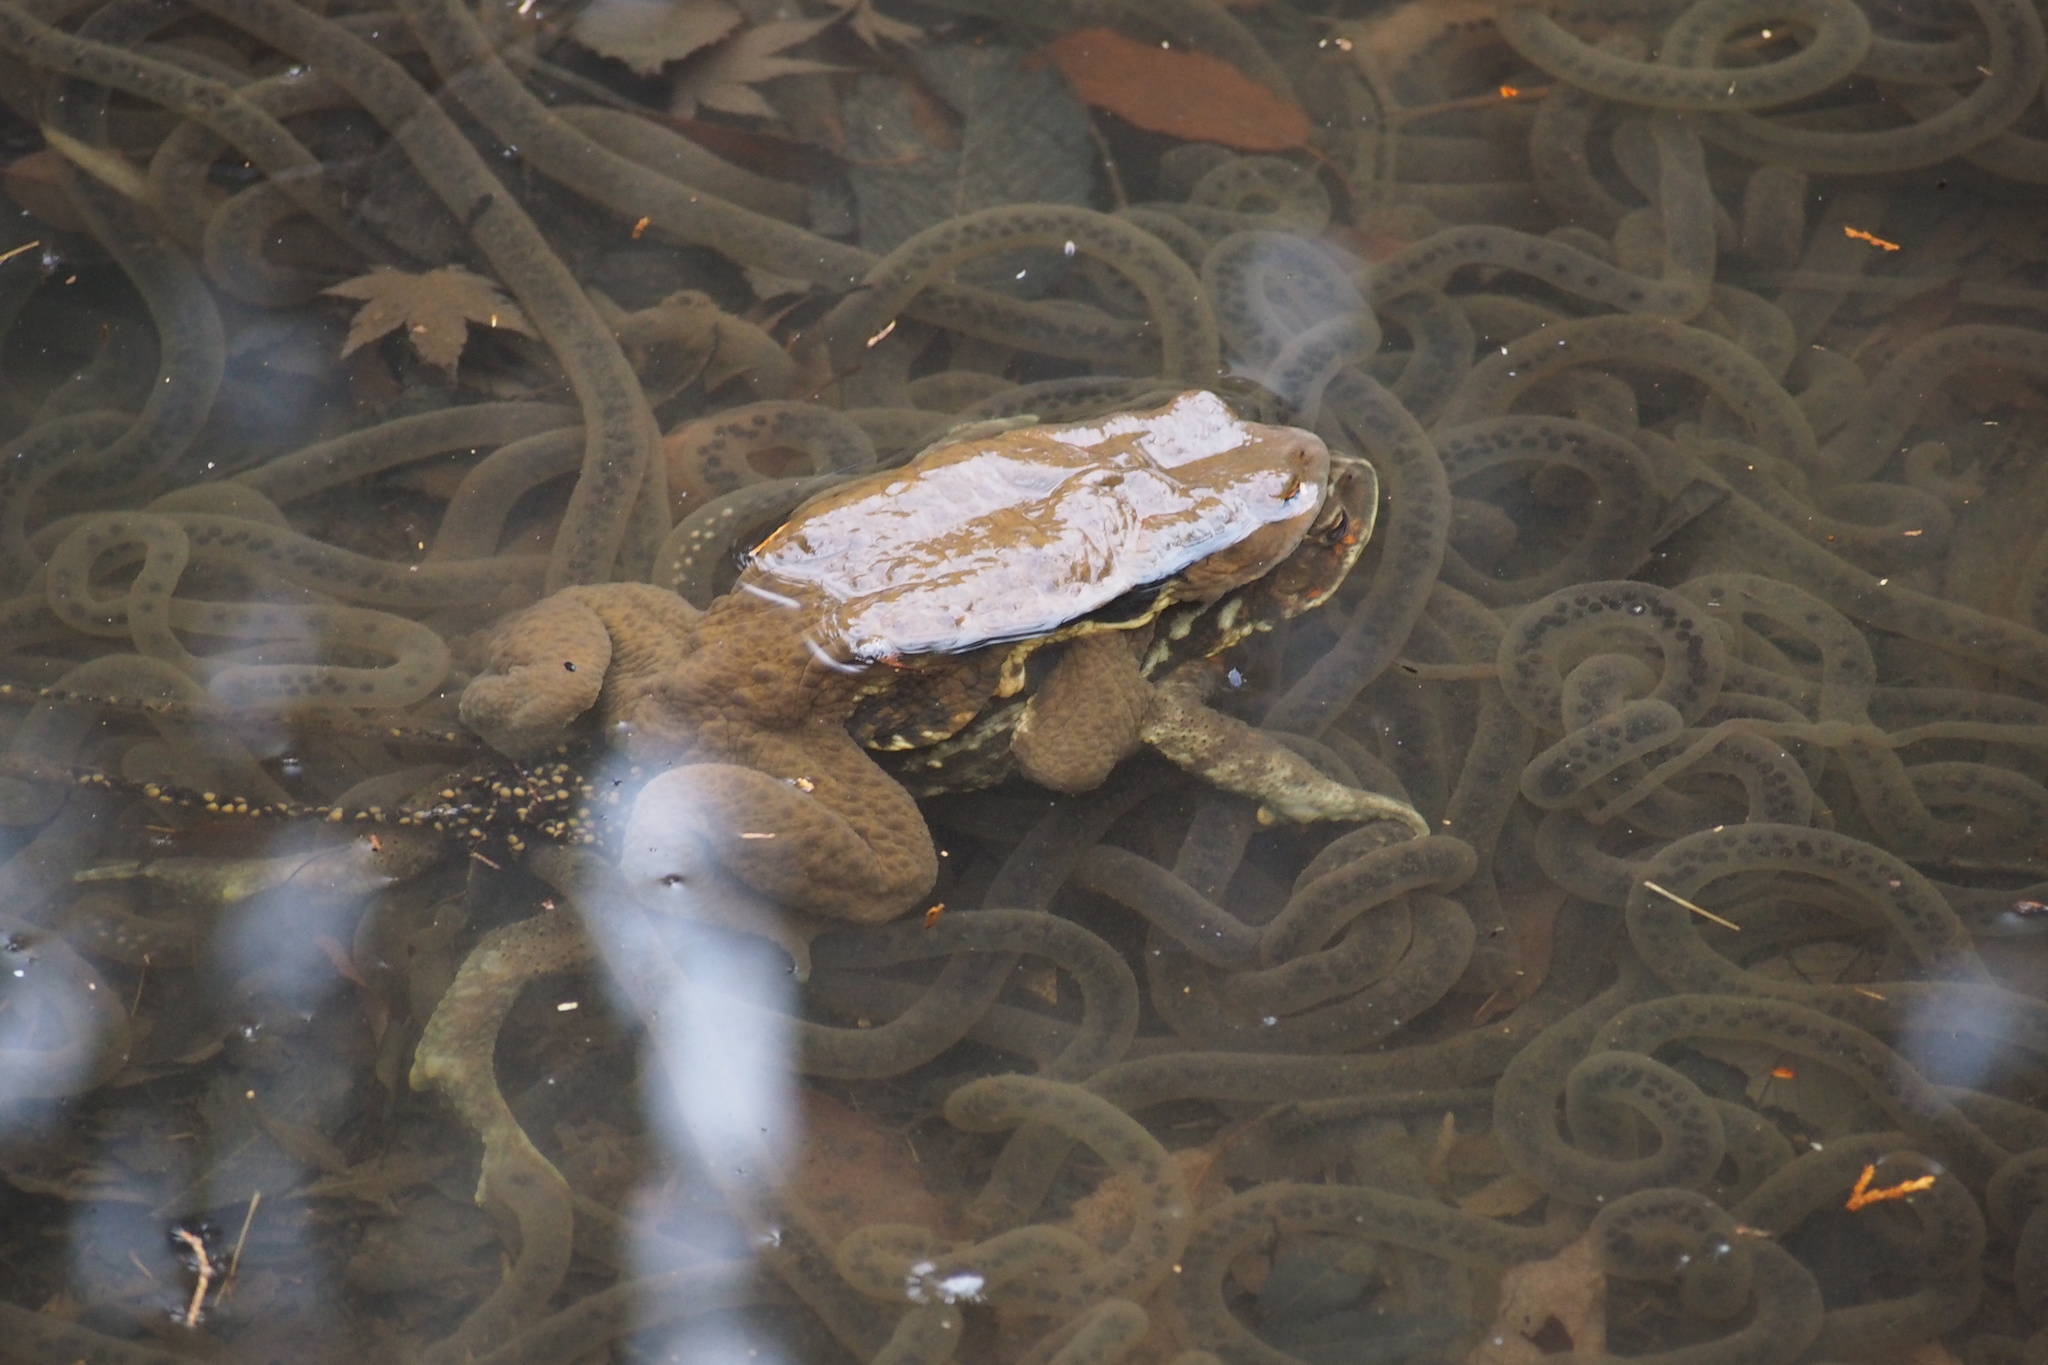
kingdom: Animalia
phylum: Chordata
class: Amphibia
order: Anura
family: Bufonidae
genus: Bufo
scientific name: Bufo japonicus
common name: Japanese common toad
